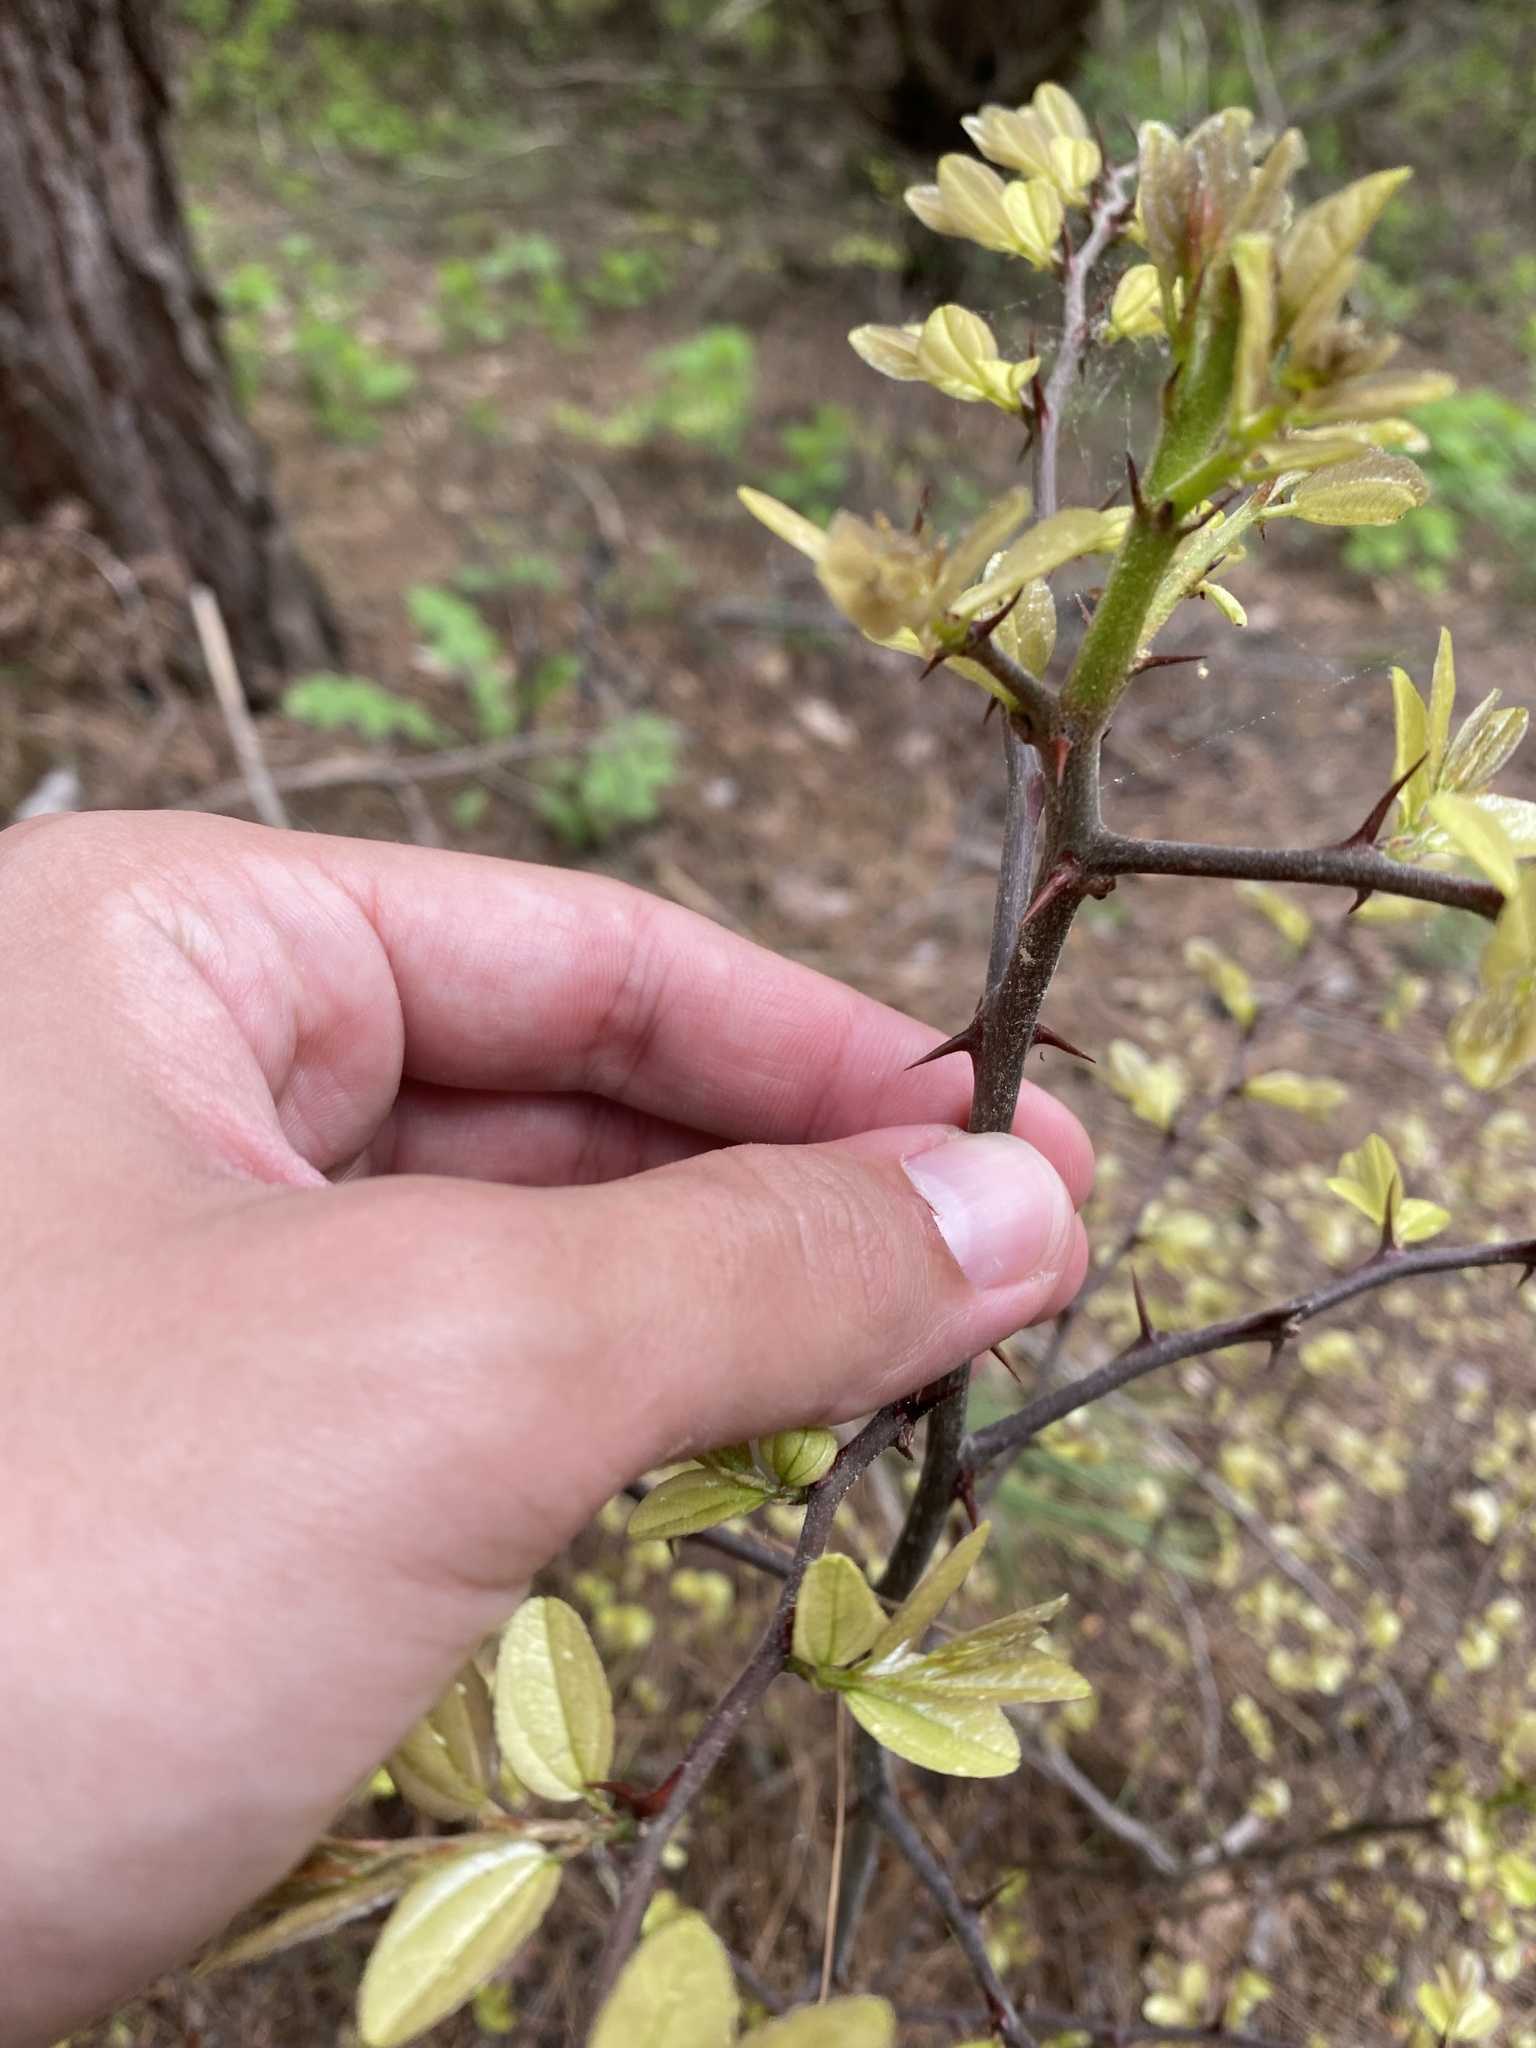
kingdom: Plantae
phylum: Tracheophyta
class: Magnoliopsida
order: Rosales
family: Rhamnaceae
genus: Paliurus
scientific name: Paliurus spina-christi
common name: Jeruselem thorn
